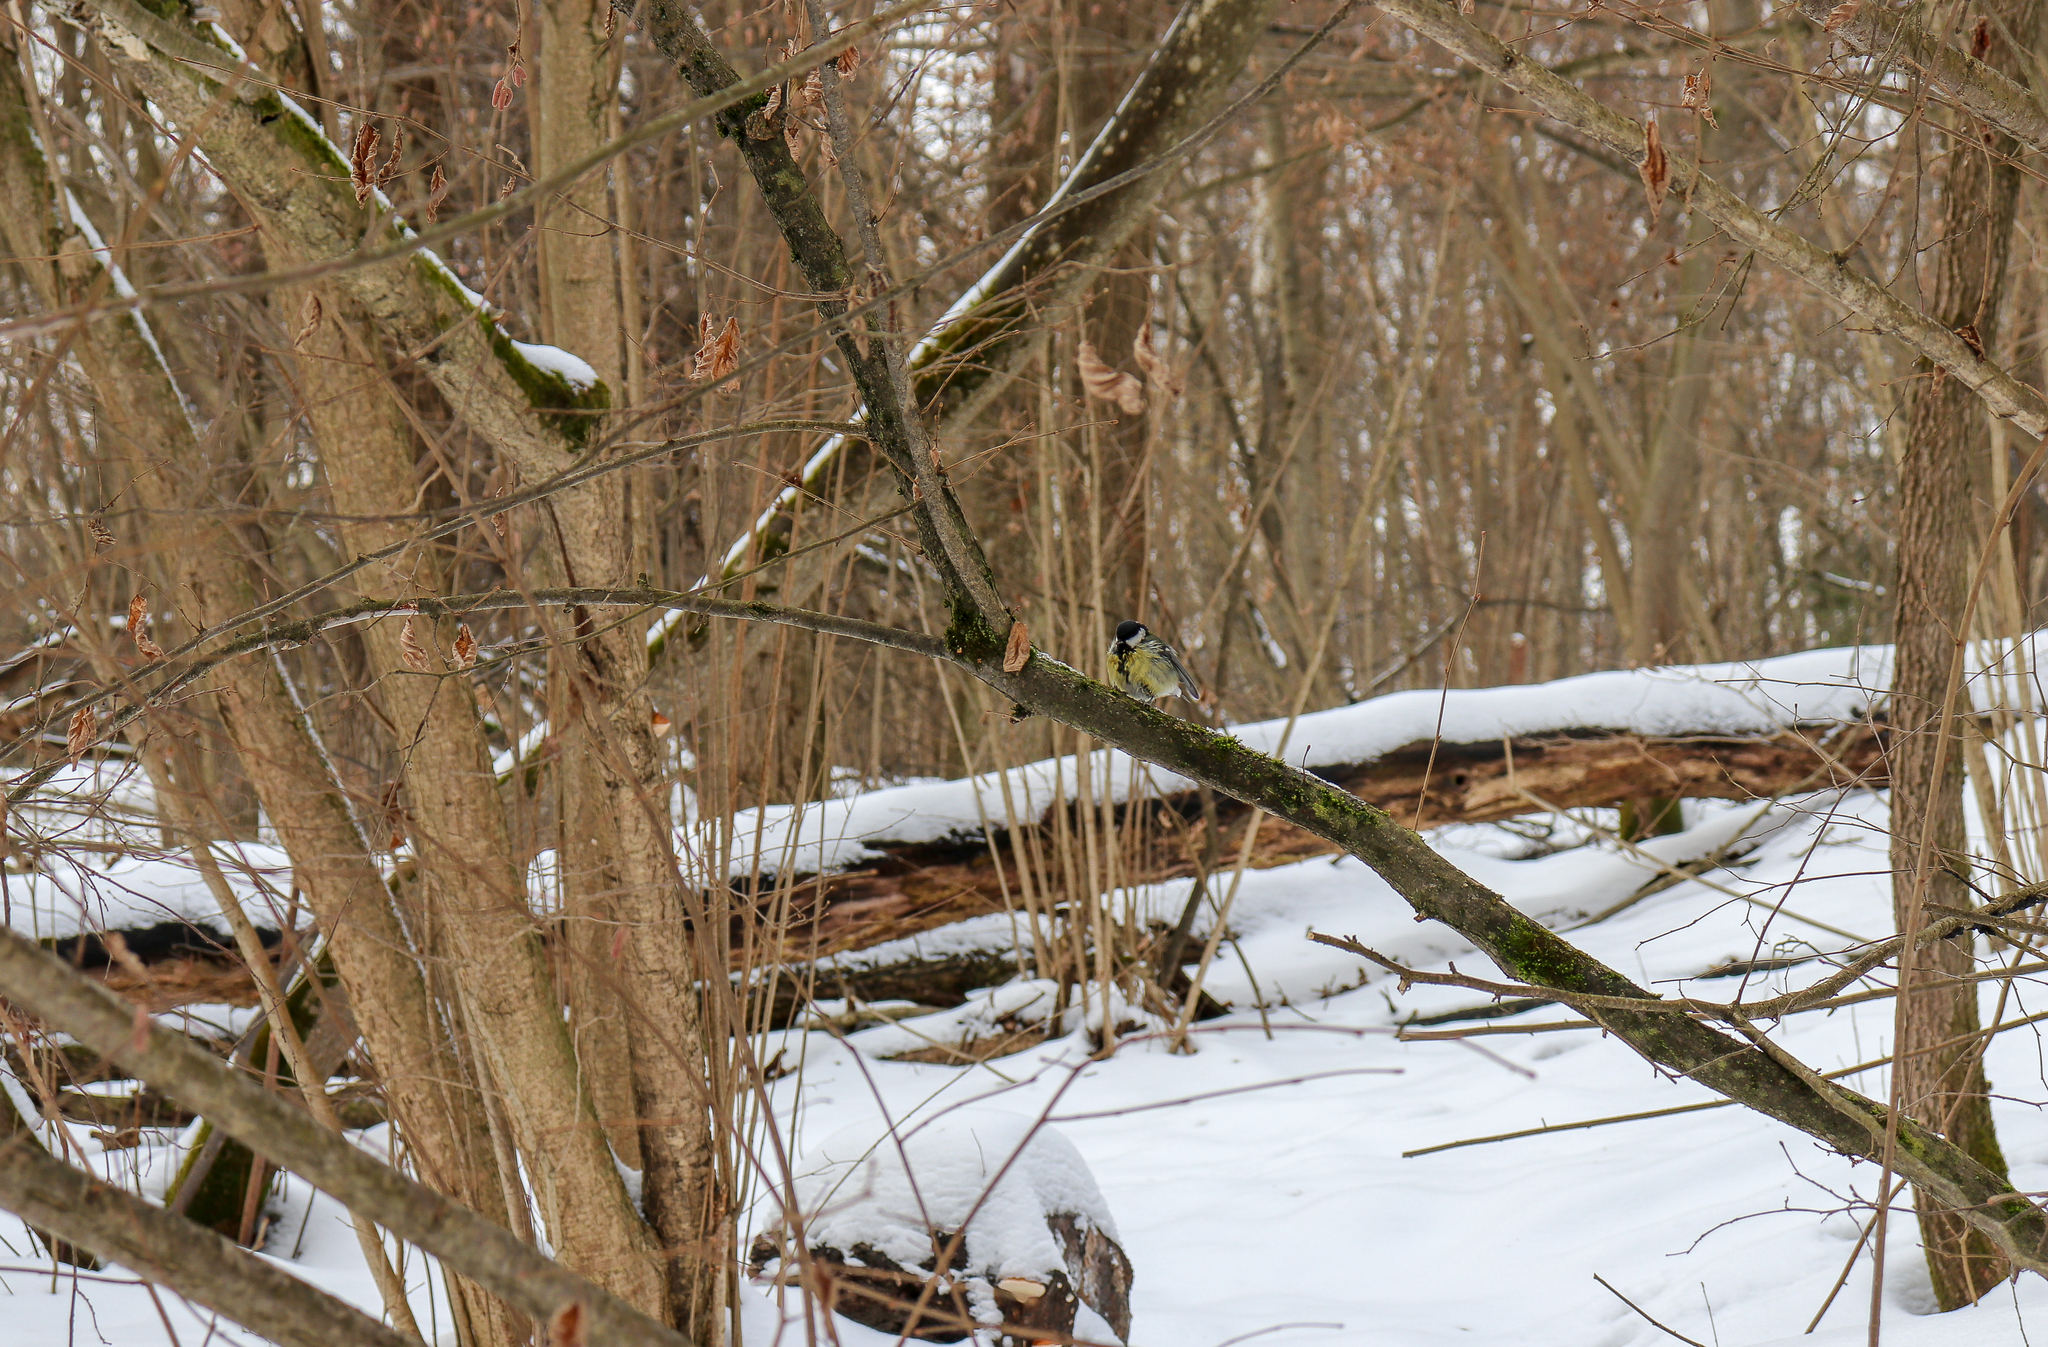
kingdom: Animalia
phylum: Chordata
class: Aves
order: Passeriformes
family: Paridae
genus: Parus
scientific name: Parus major
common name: Great tit
